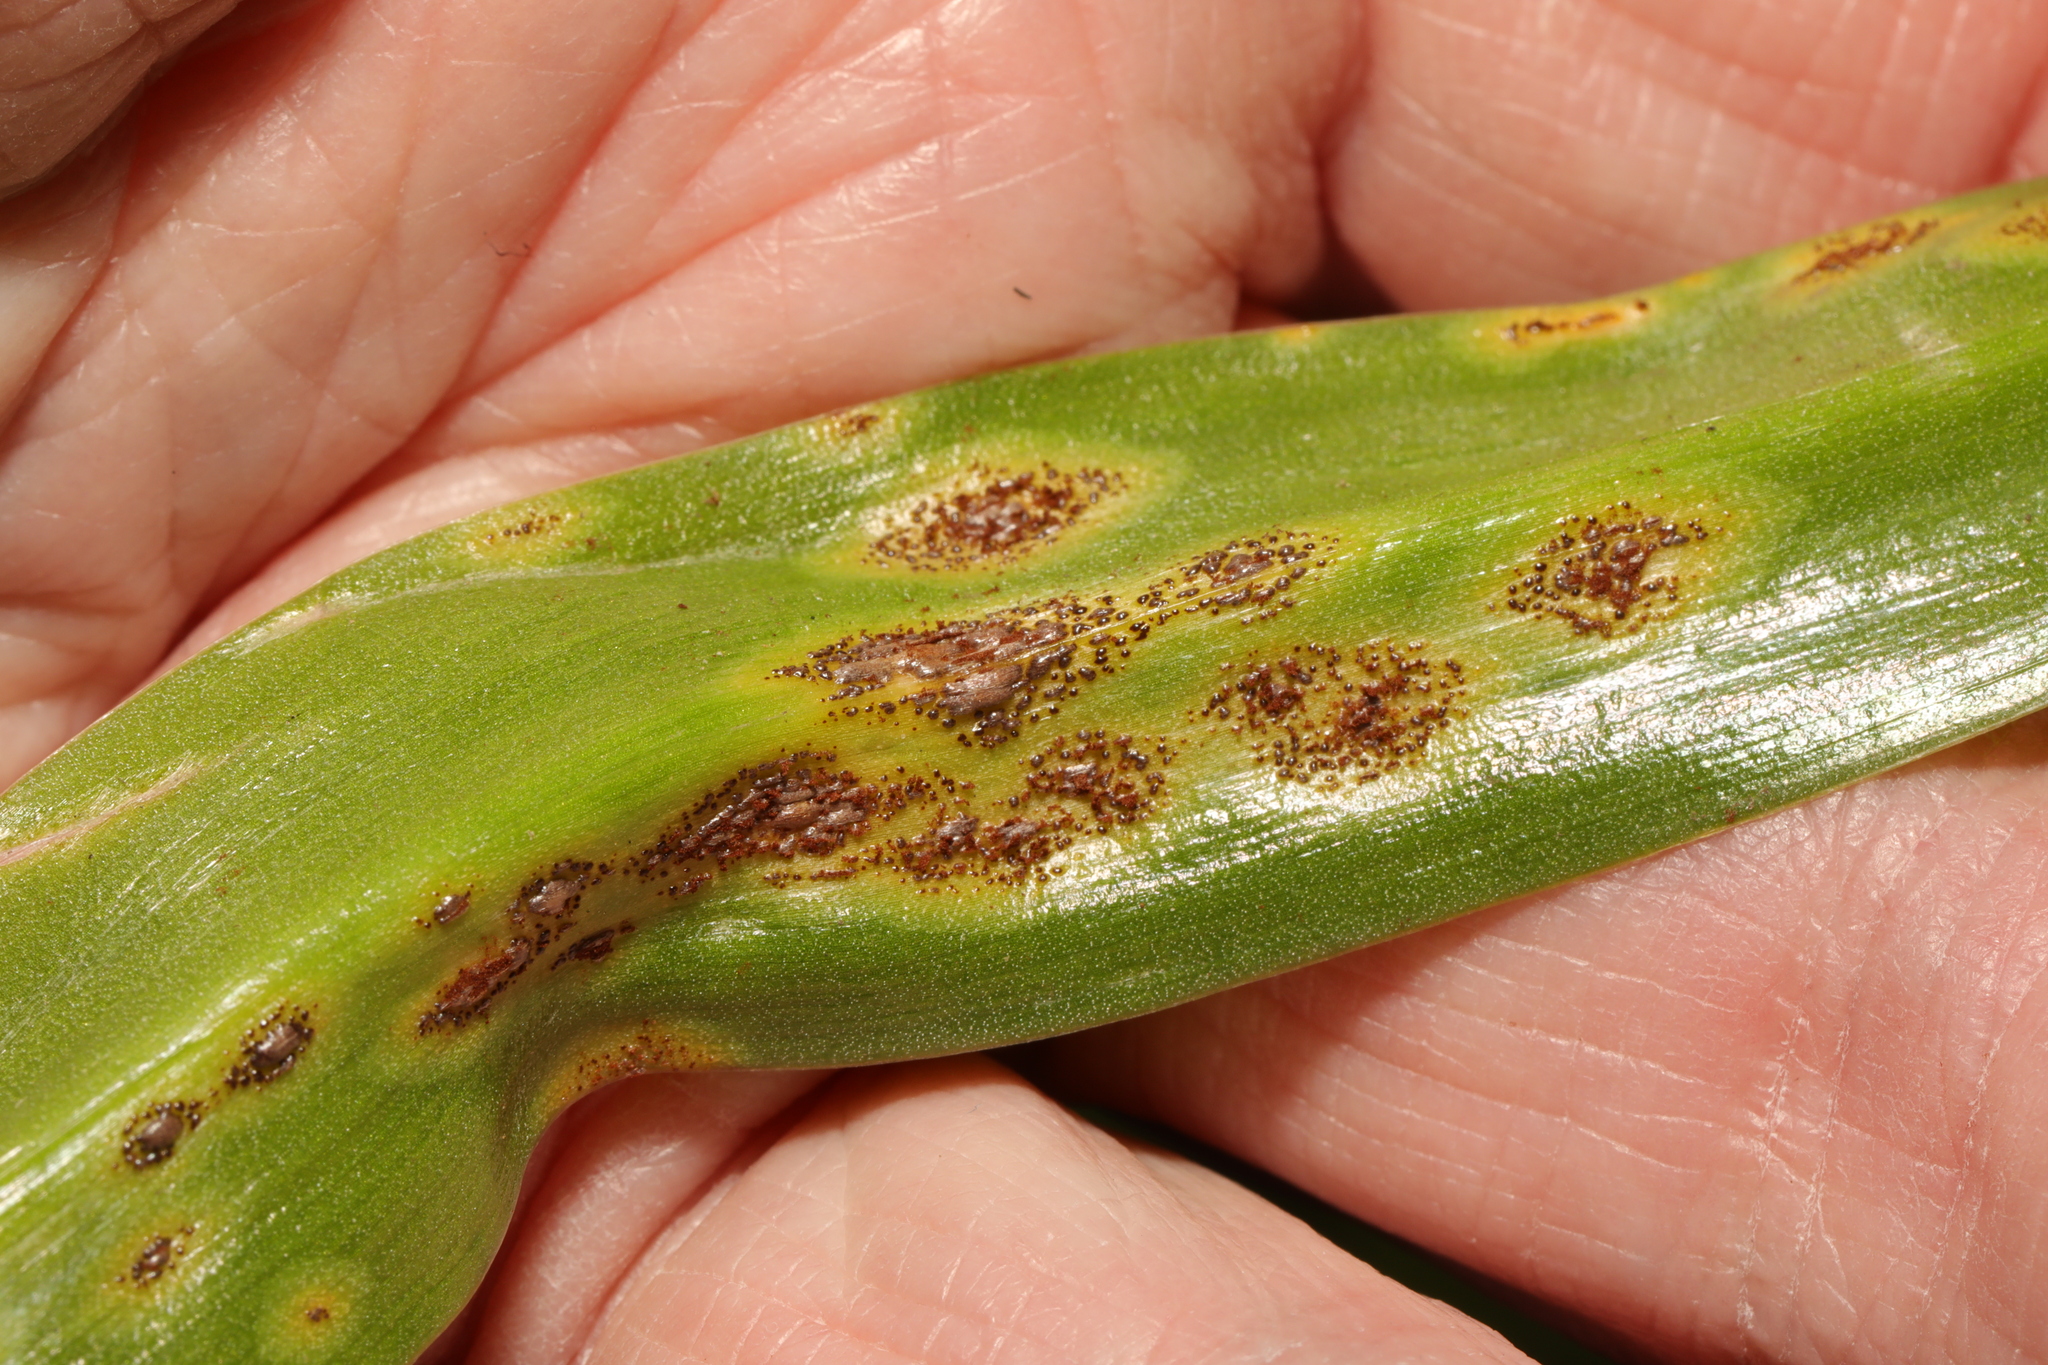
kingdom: Fungi
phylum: Basidiomycota
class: Pucciniomycetes
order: Pucciniales
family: Pucciniaceae
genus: Uromyces
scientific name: Uromyces hyacinthi
